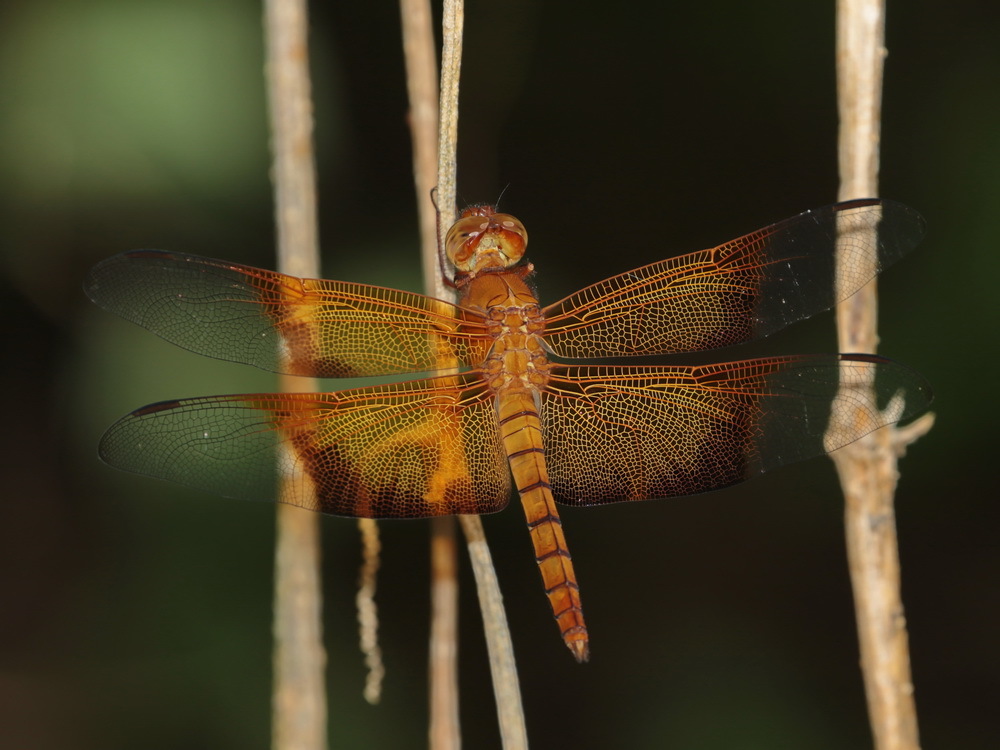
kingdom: Animalia
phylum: Arthropoda
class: Insecta
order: Odonata
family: Libellulidae
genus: Camacinia
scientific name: Camacinia gigantea
